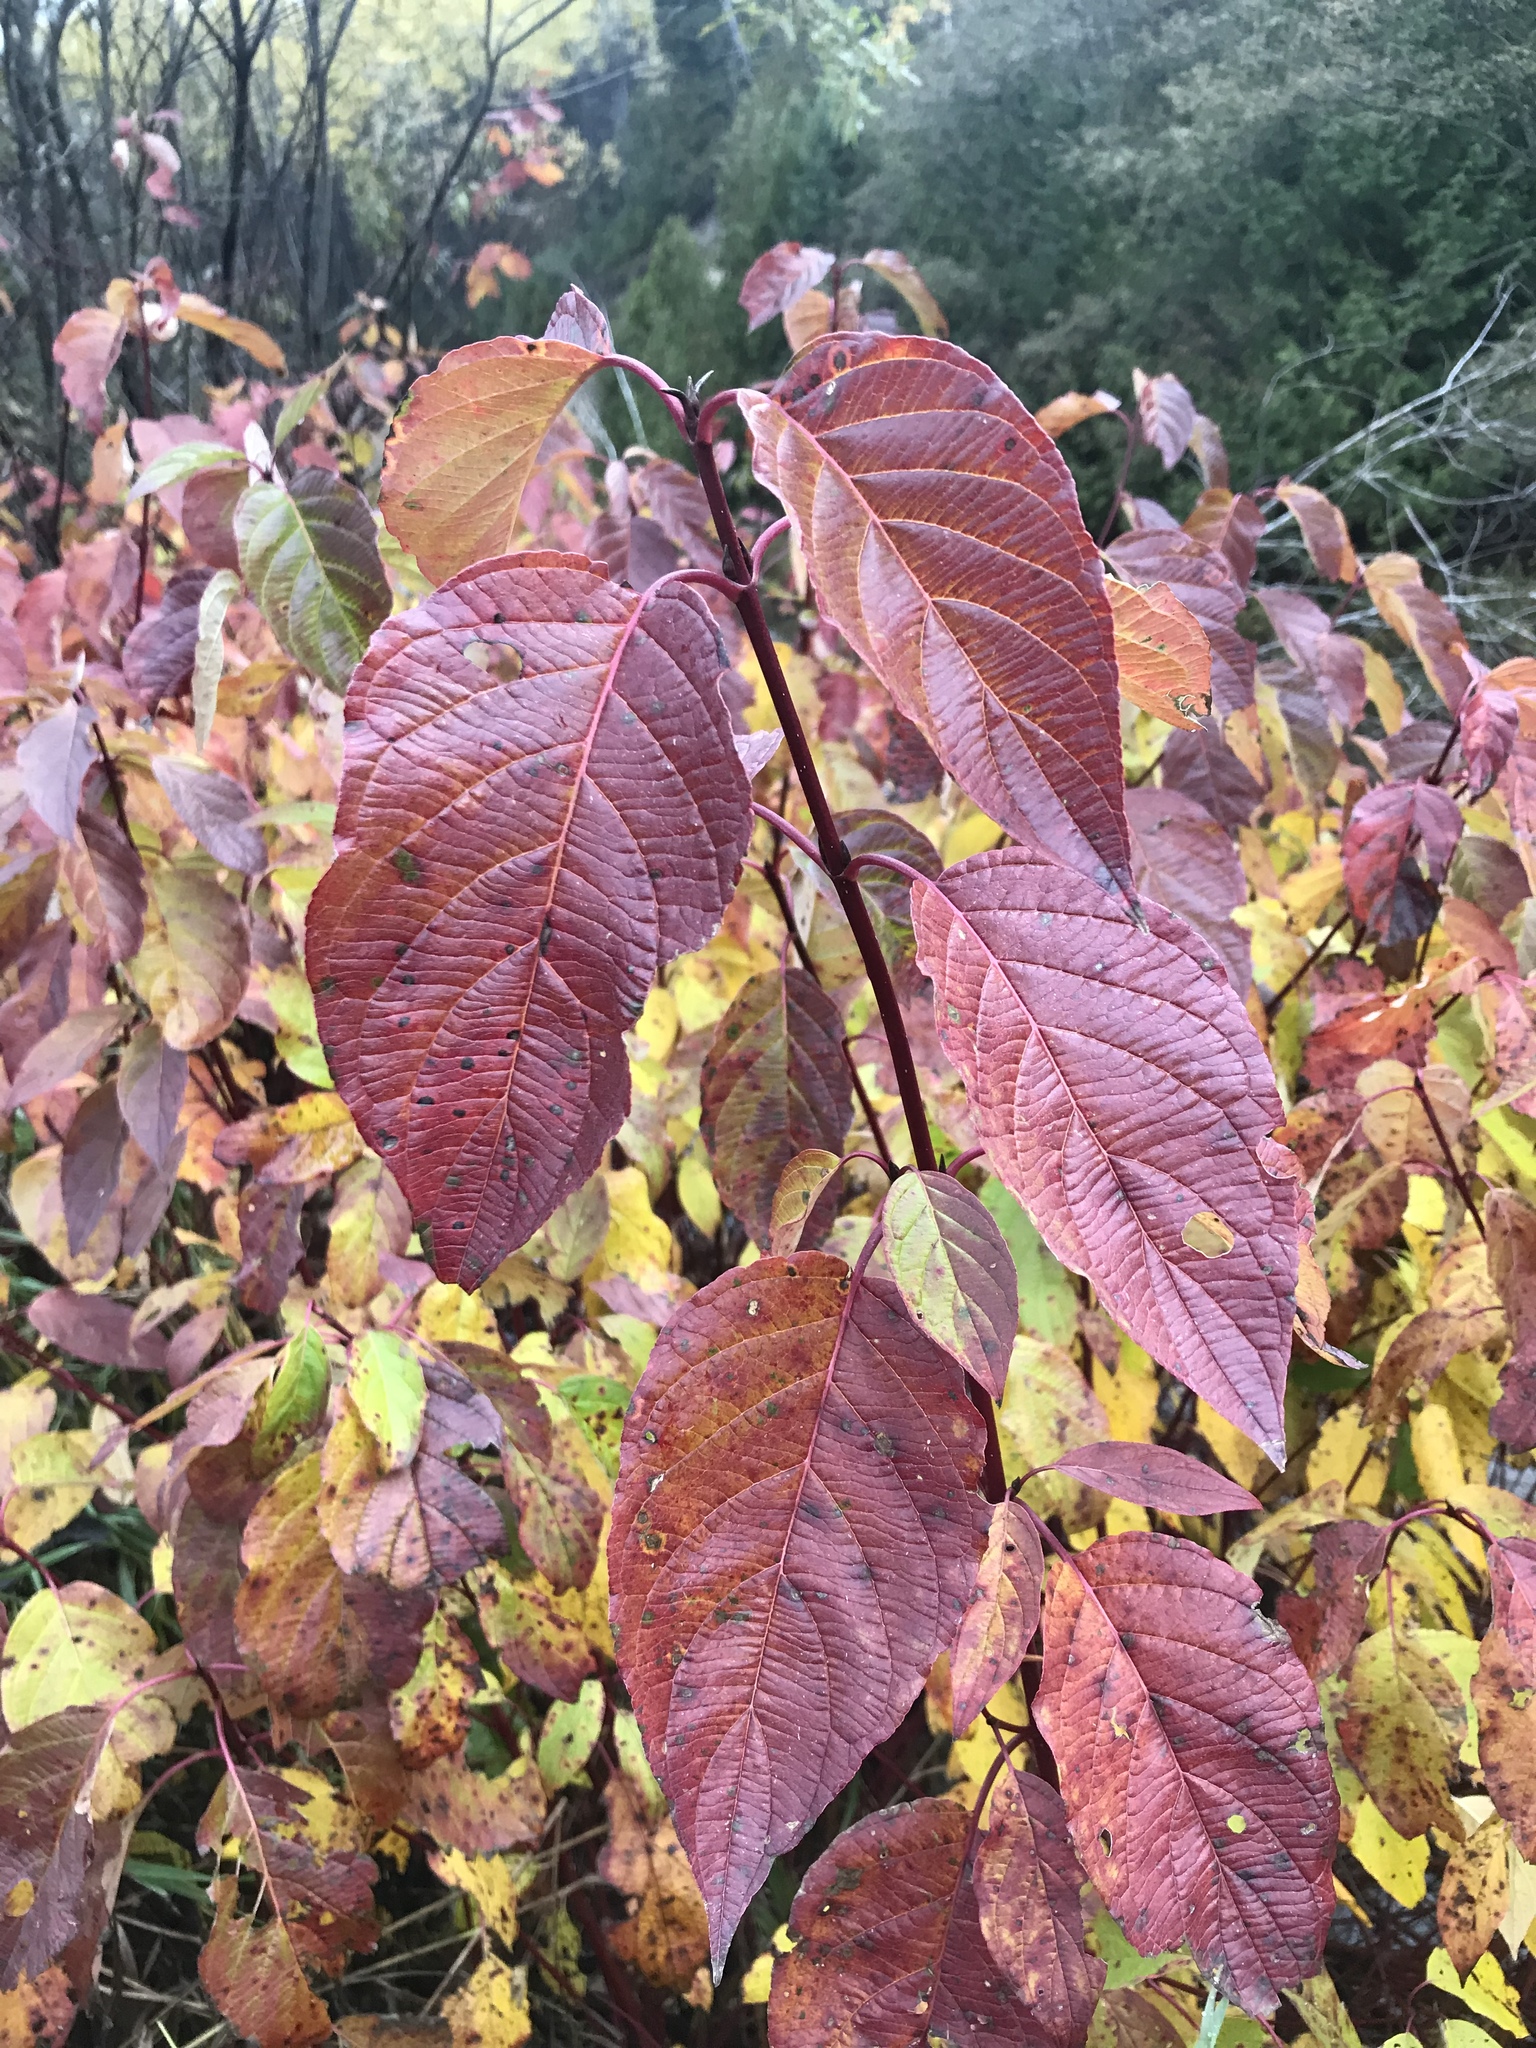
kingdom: Plantae
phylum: Tracheophyta
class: Magnoliopsida
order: Cornales
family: Cornaceae
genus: Cornus
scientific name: Cornus sericea
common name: Red-osier dogwood
